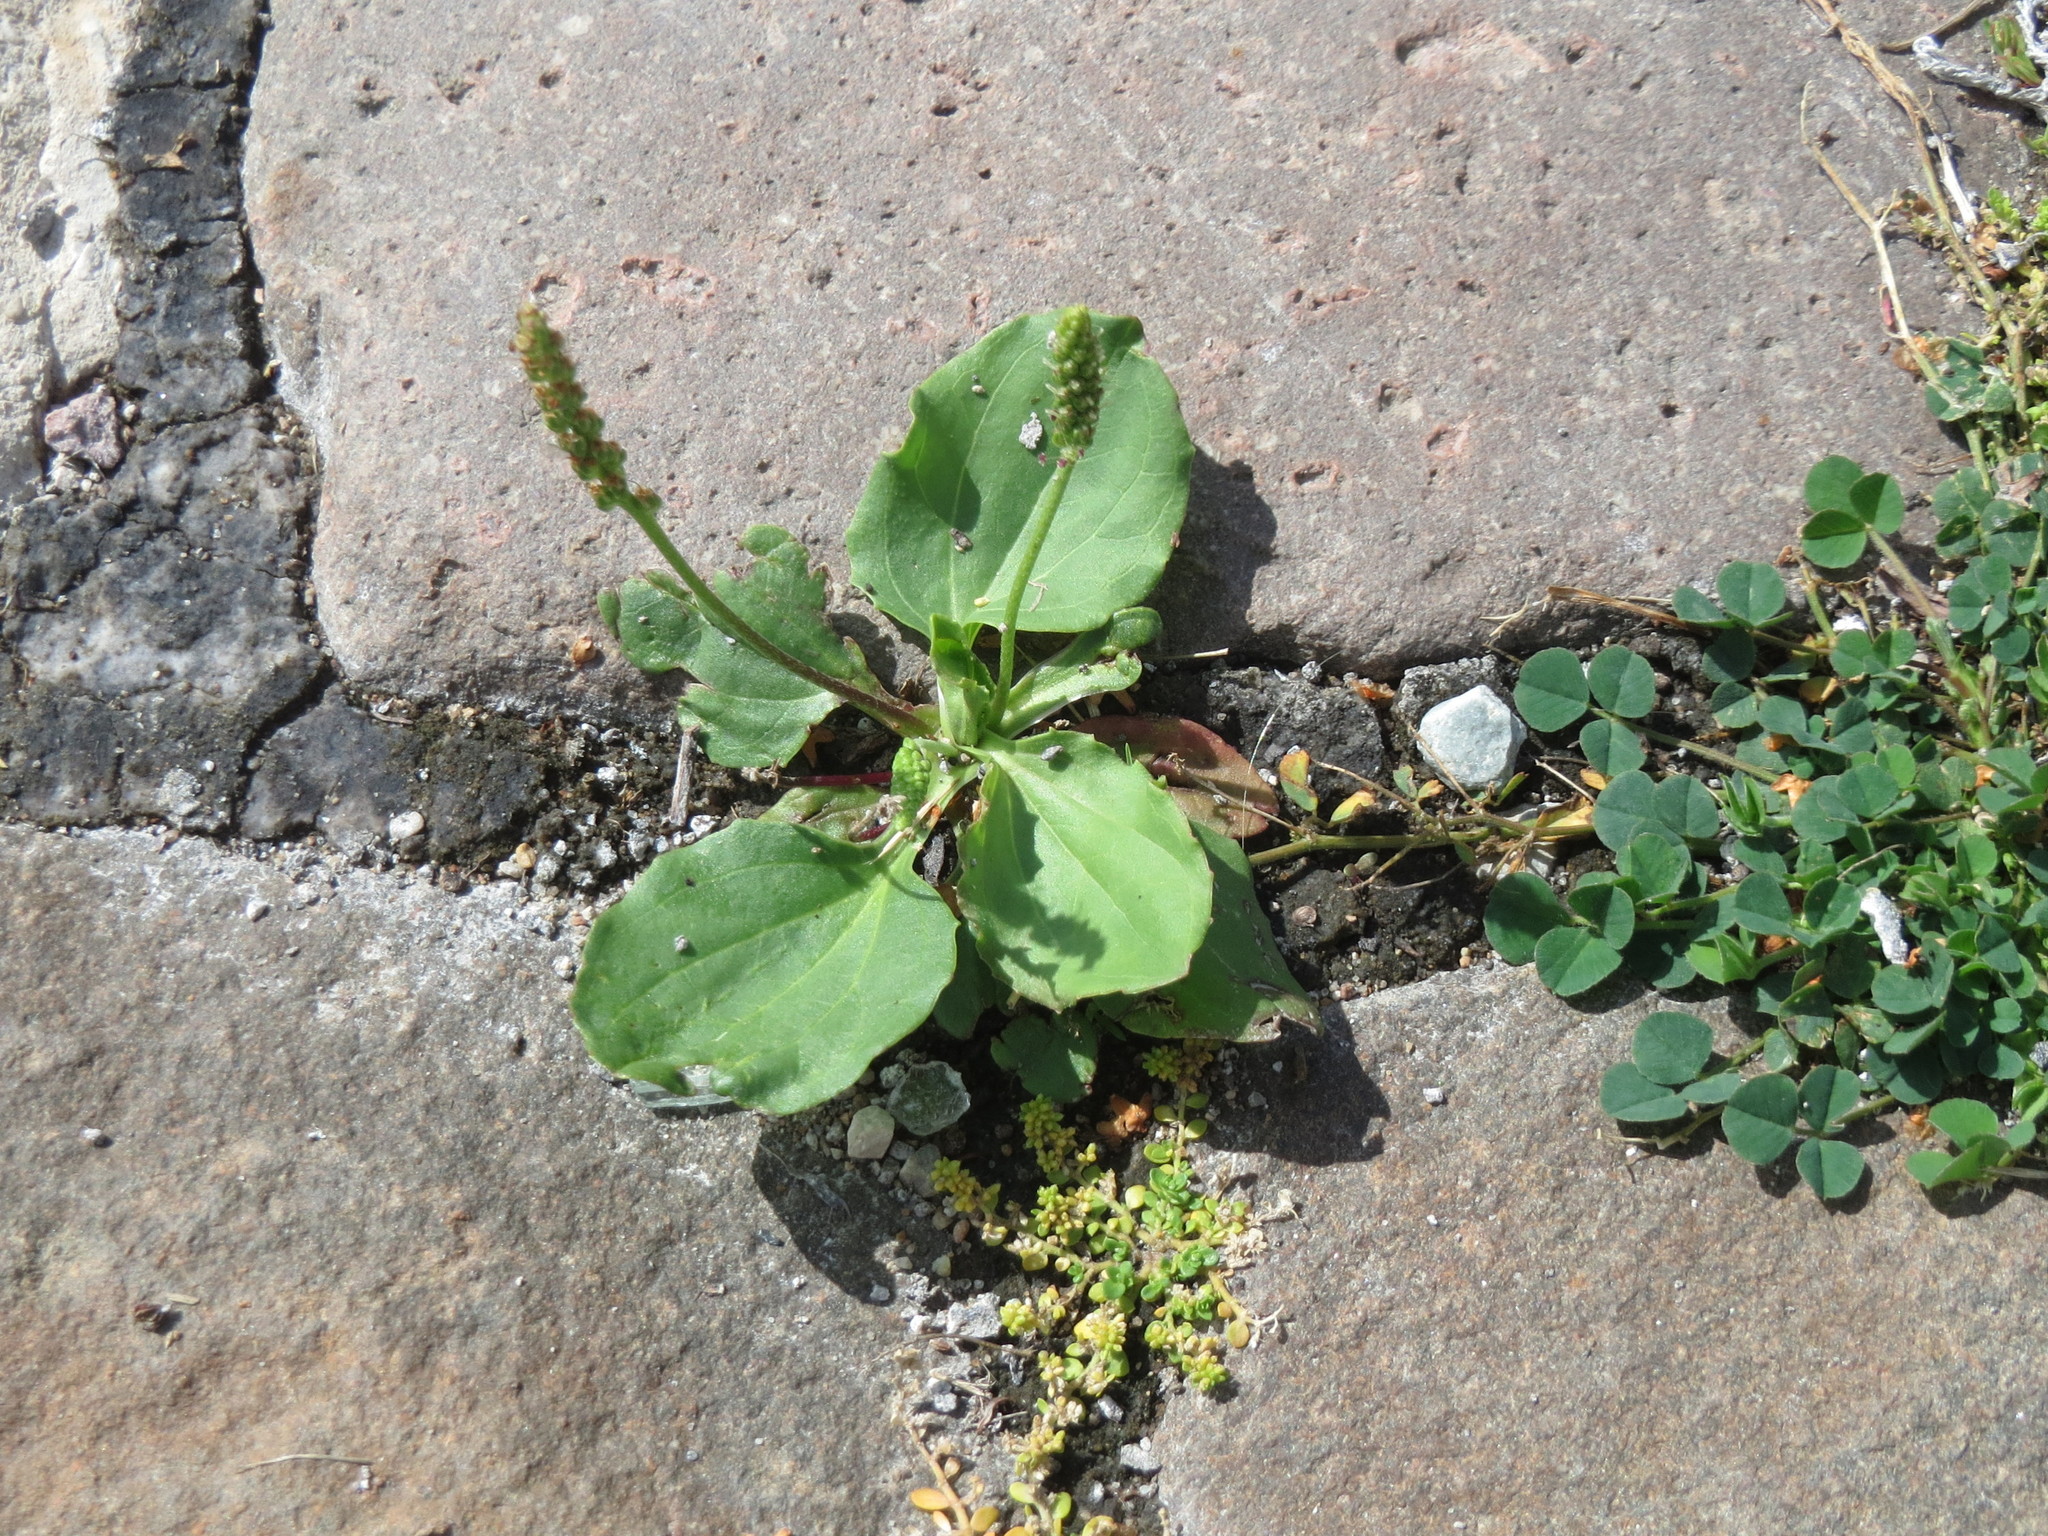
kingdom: Plantae
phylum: Tracheophyta
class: Magnoliopsida
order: Lamiales
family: Plantaginaceae
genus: Plantago
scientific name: Plantago major
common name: Common plantain
